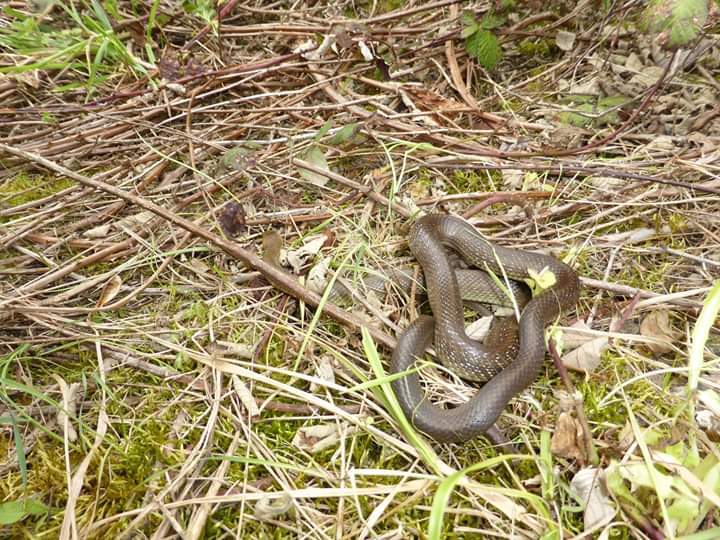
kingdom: Animalia
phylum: Chordata
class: Squamata
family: Colubridae
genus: Zamenis
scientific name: Zamenis longissimus
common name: Aesculapean snake
